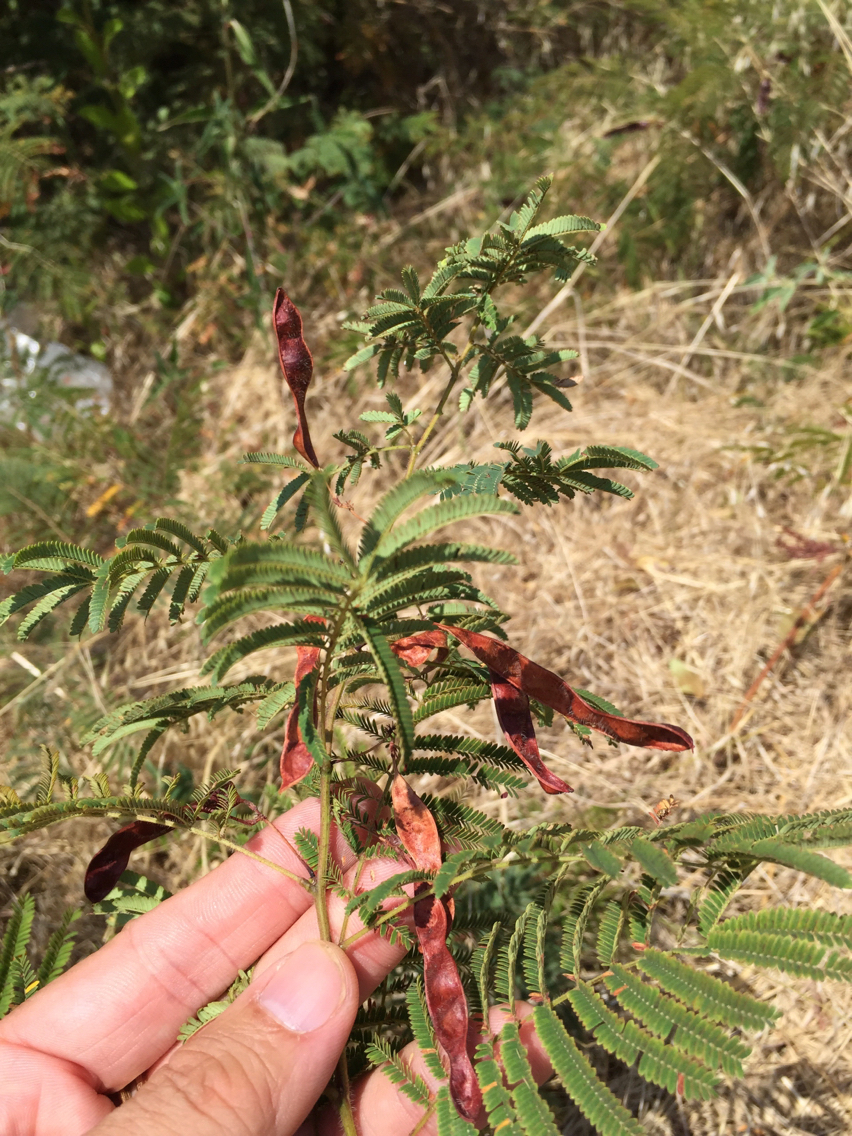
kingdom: Plantae
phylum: Tracheophyta
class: Magnoliopsida
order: Fabales
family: Fabaceae
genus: Acaciella
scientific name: Acaciella angustissima
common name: Prairie acacia
